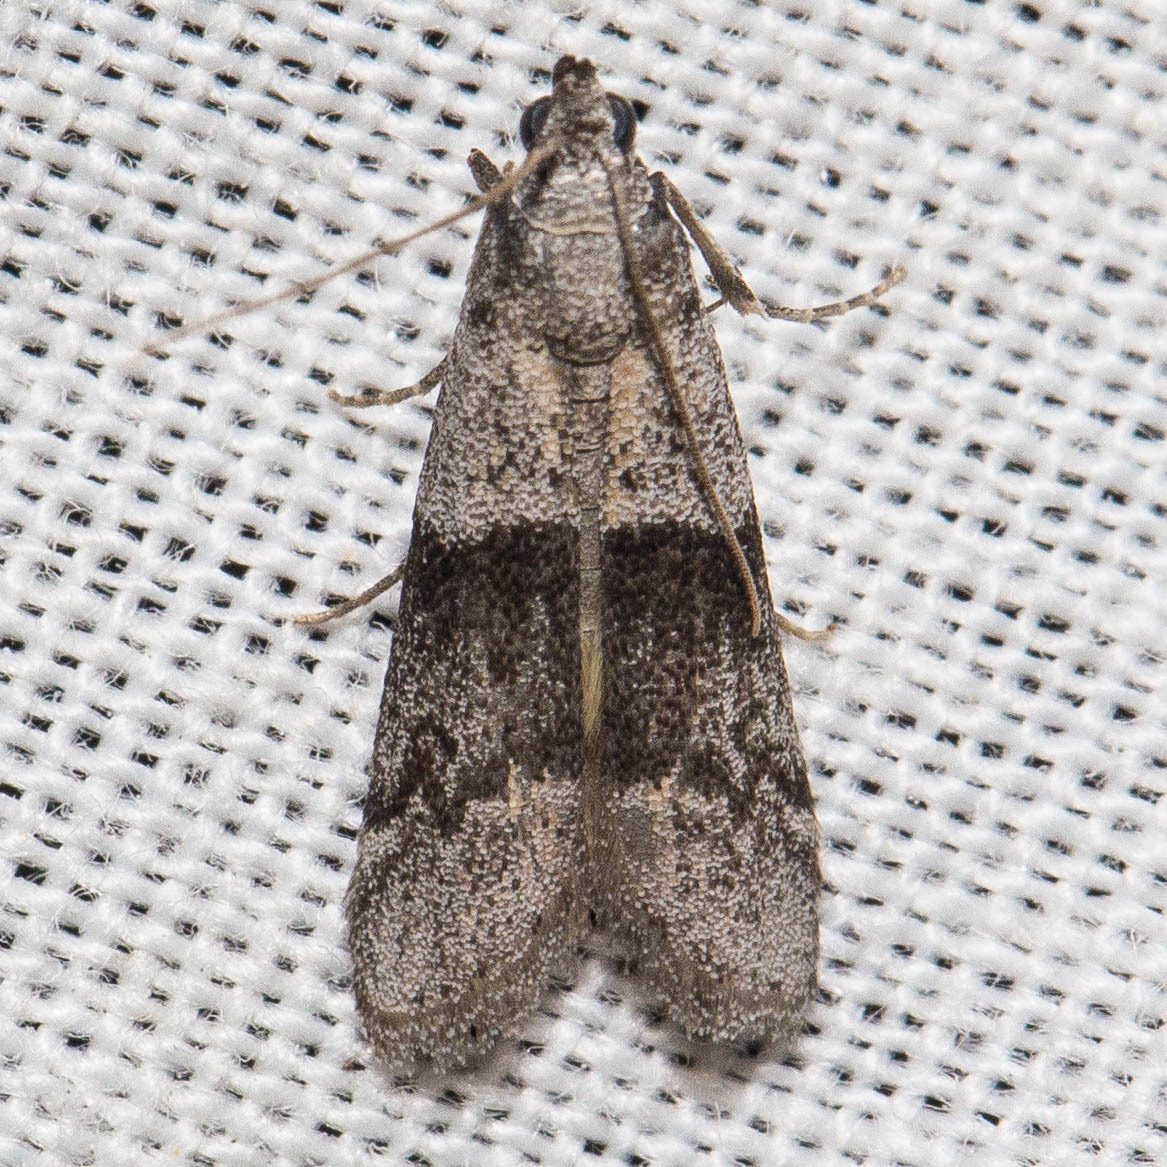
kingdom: Animalia
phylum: Arthropoda
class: Insecta
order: Lepidoptera
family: Pyralidae
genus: Vitula
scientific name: Vitula insula
